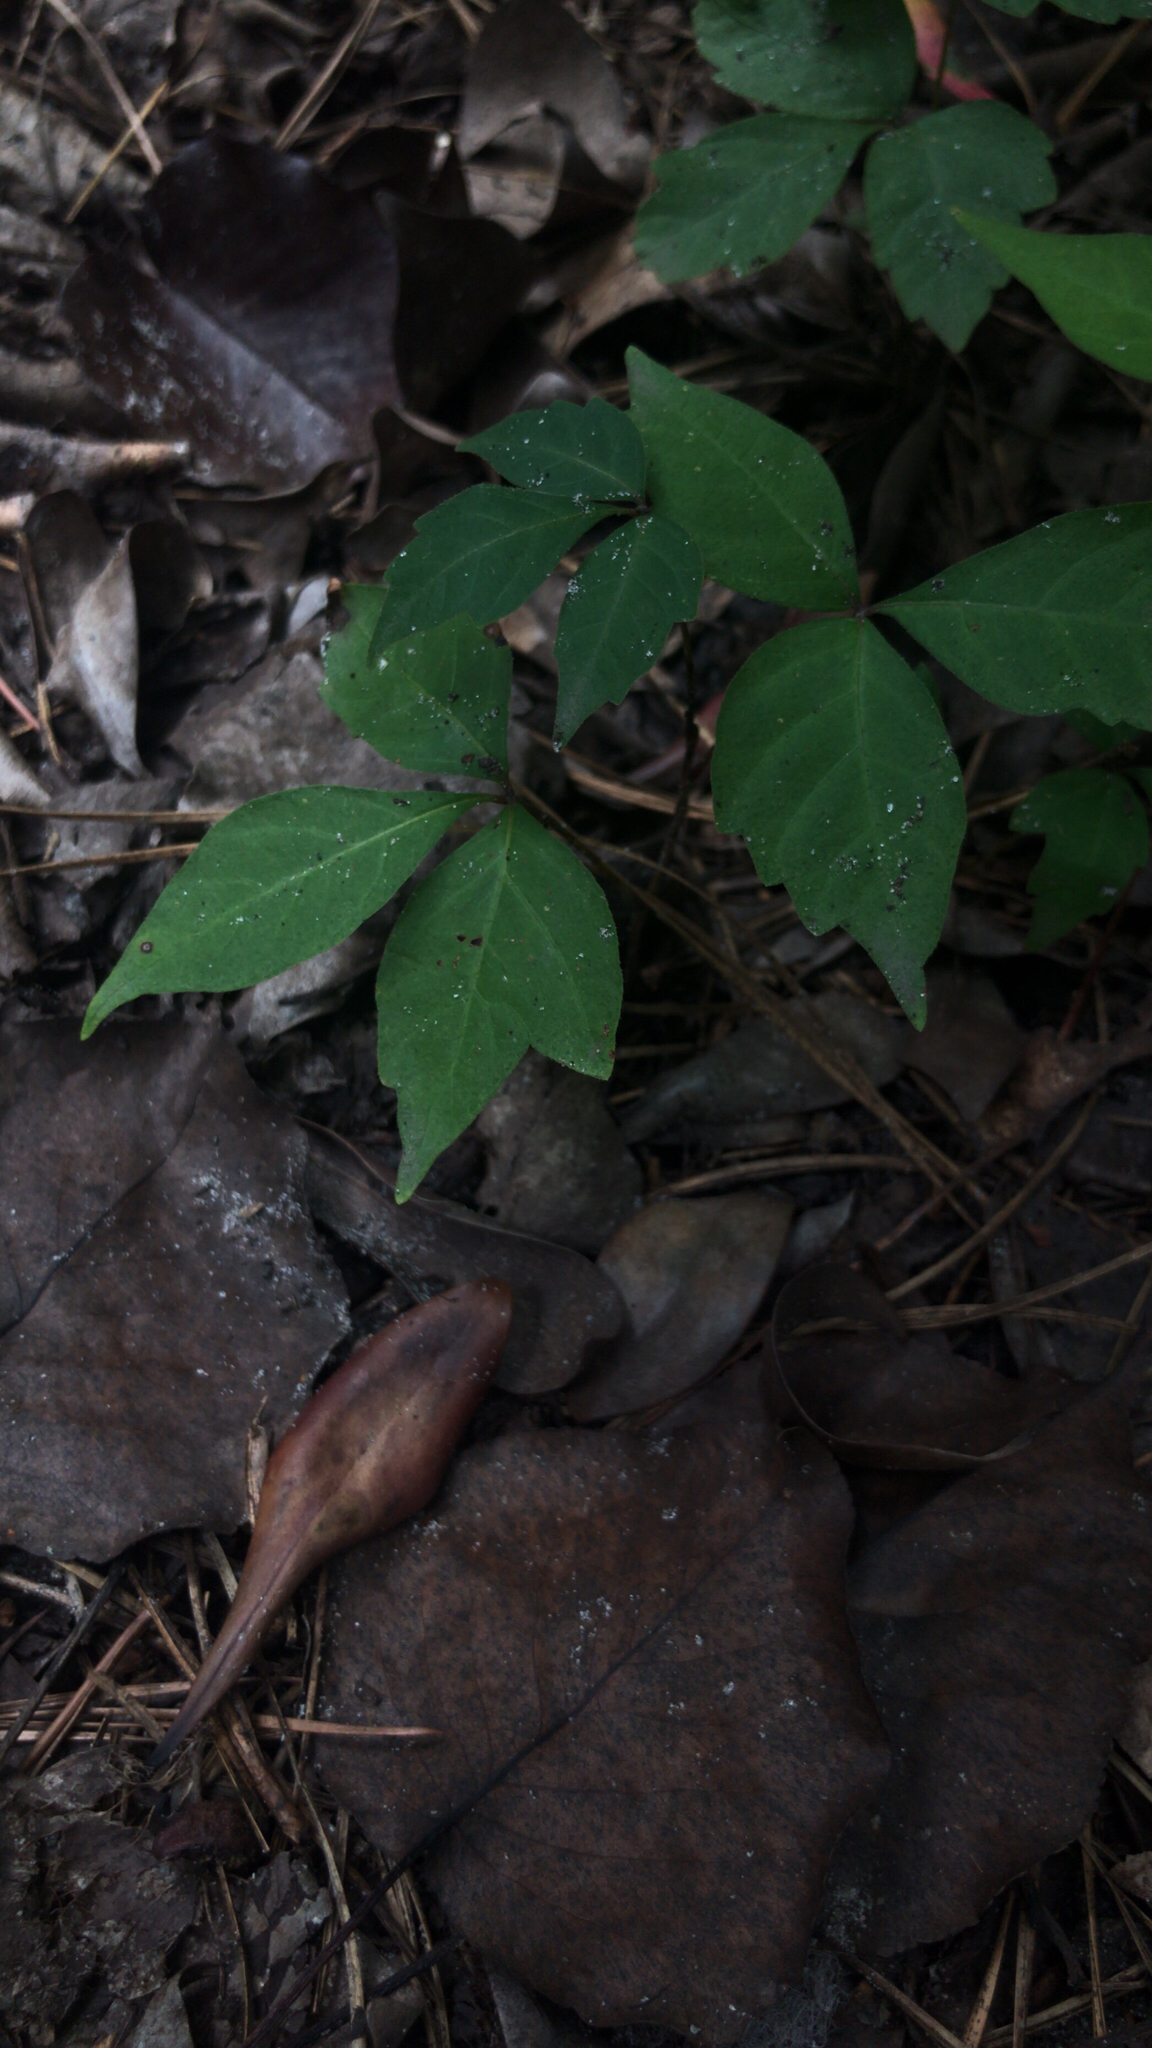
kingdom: Plantae
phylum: Tracheophyta
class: Magnoliopsida
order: Sapindales
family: Anacardiaceae
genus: Toxicodendron
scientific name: Toxicodendron radicans
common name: Poison ivy
